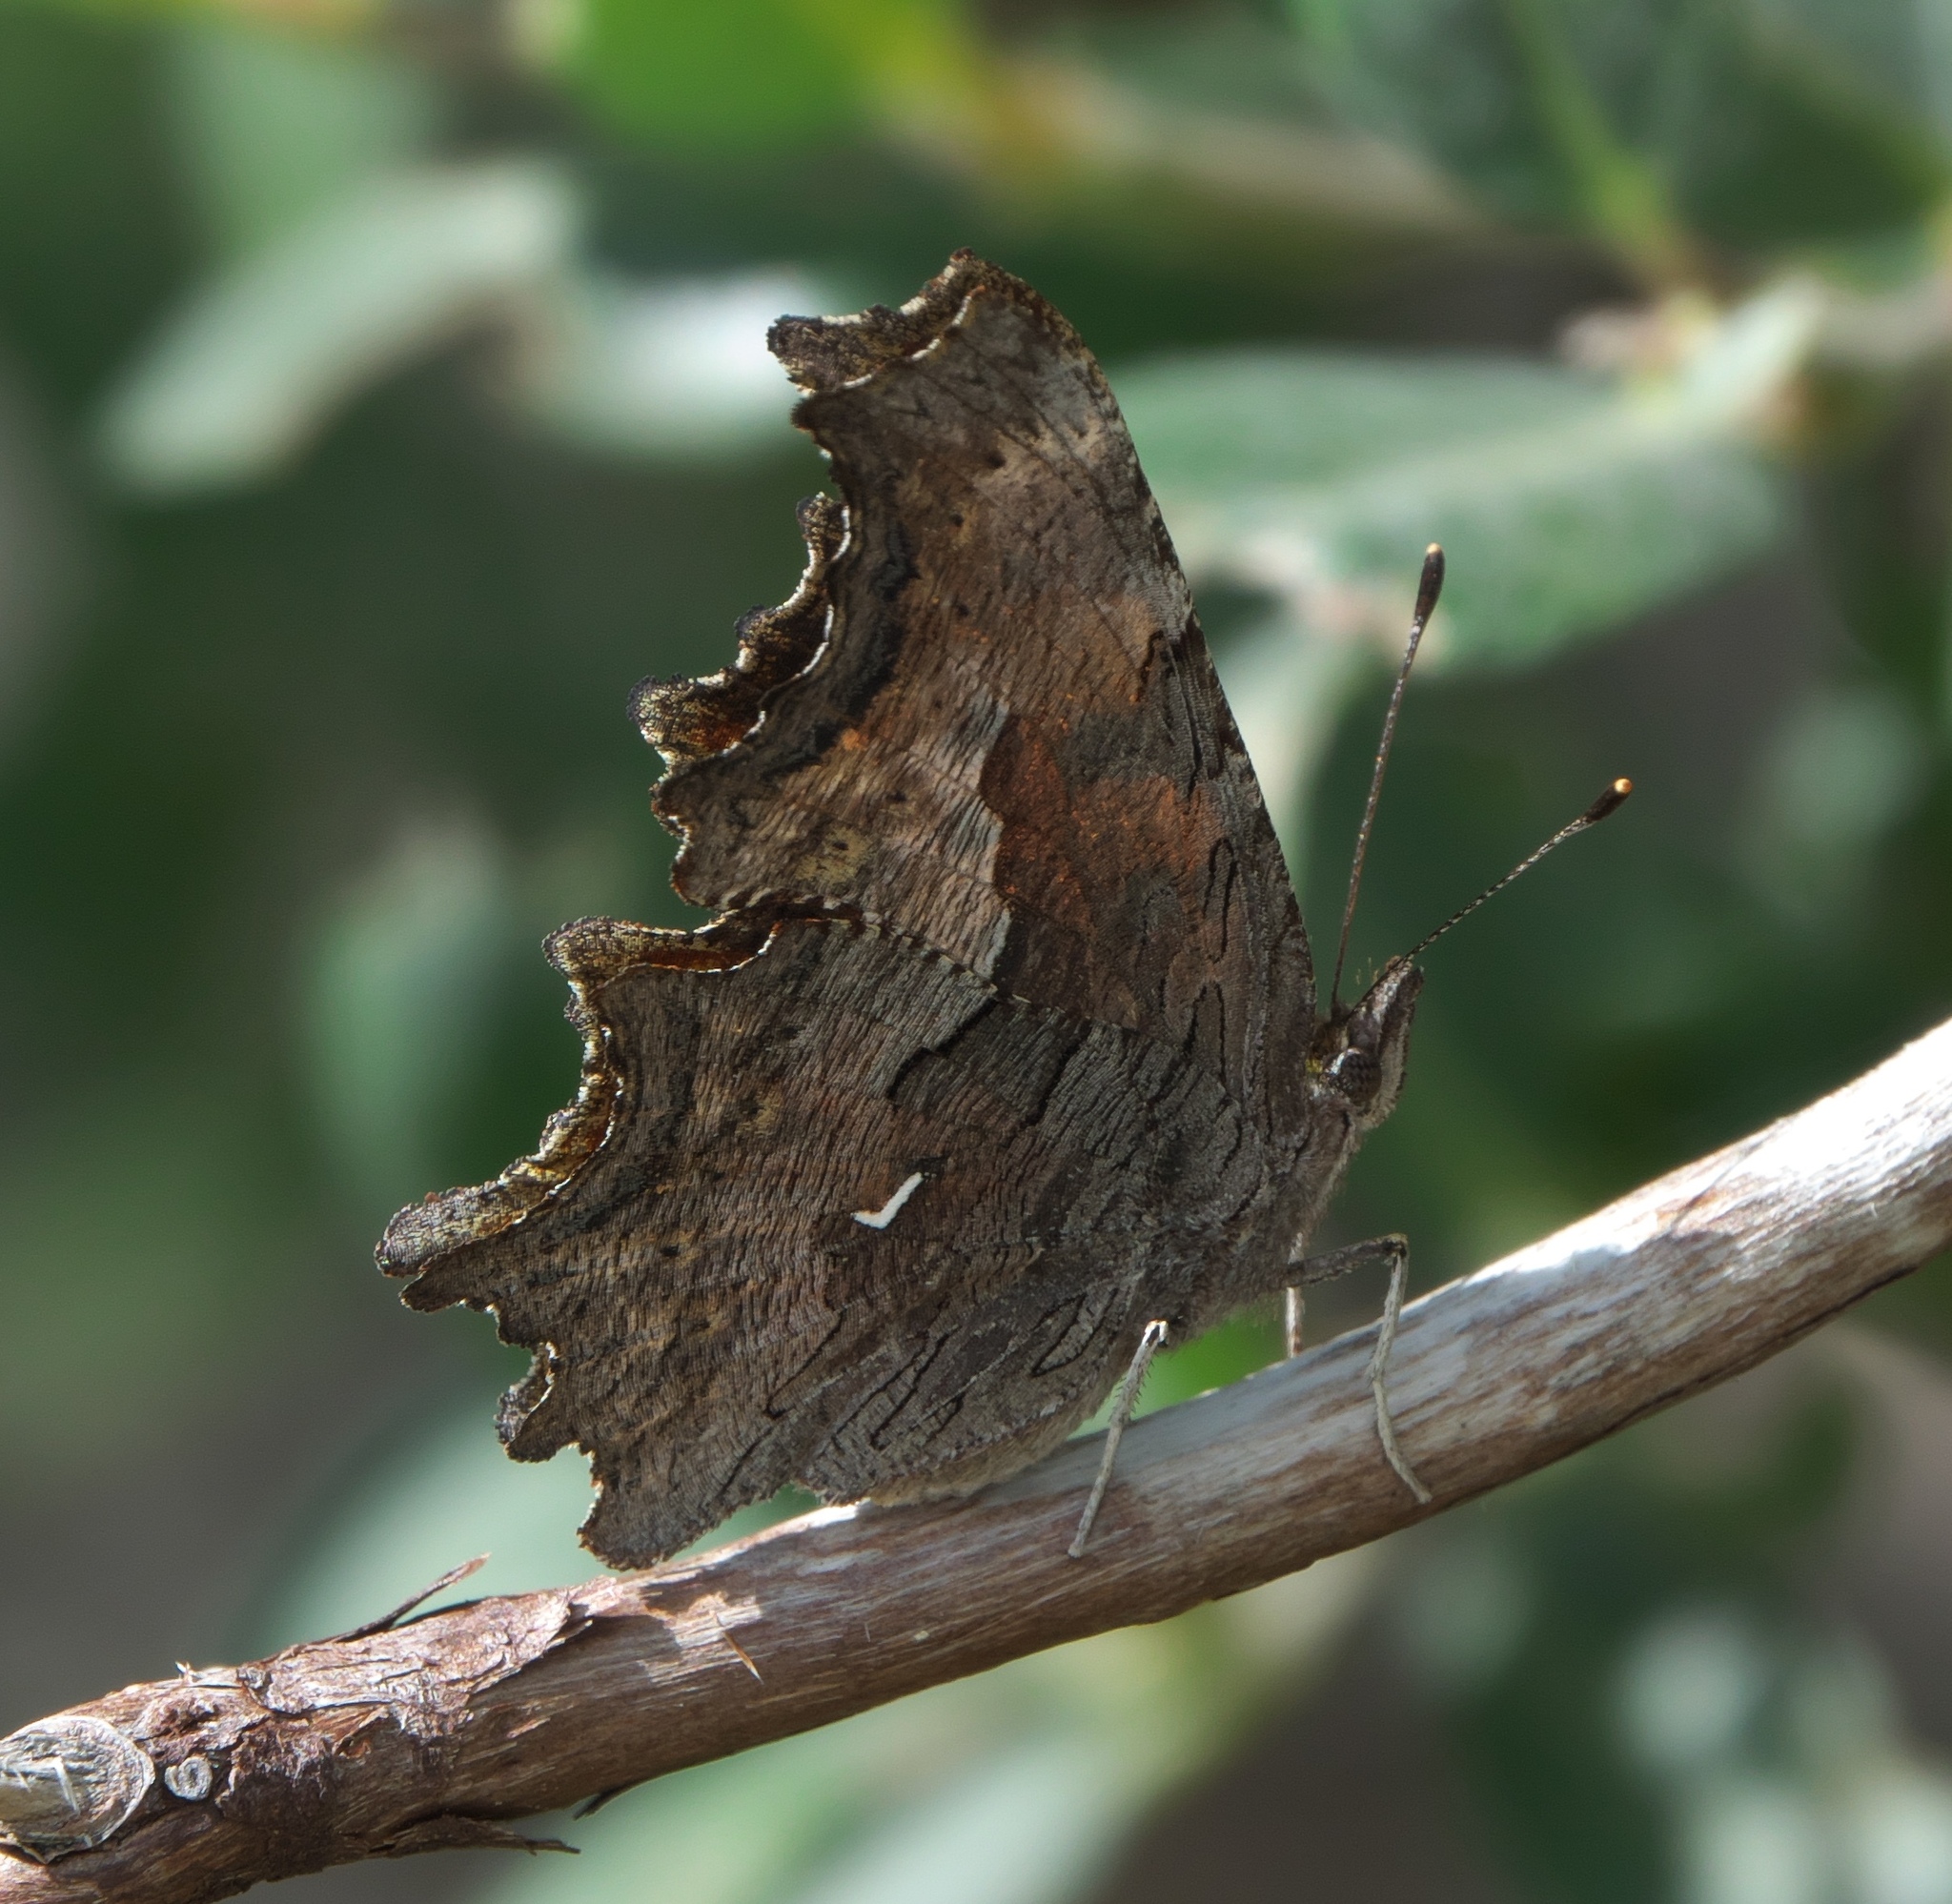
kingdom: Animalia
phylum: Arthropoda
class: Insecta
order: Lepidoptera
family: Nymphalidae
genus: Polygonia
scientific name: Polygonia gracilis
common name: Hoary comma
